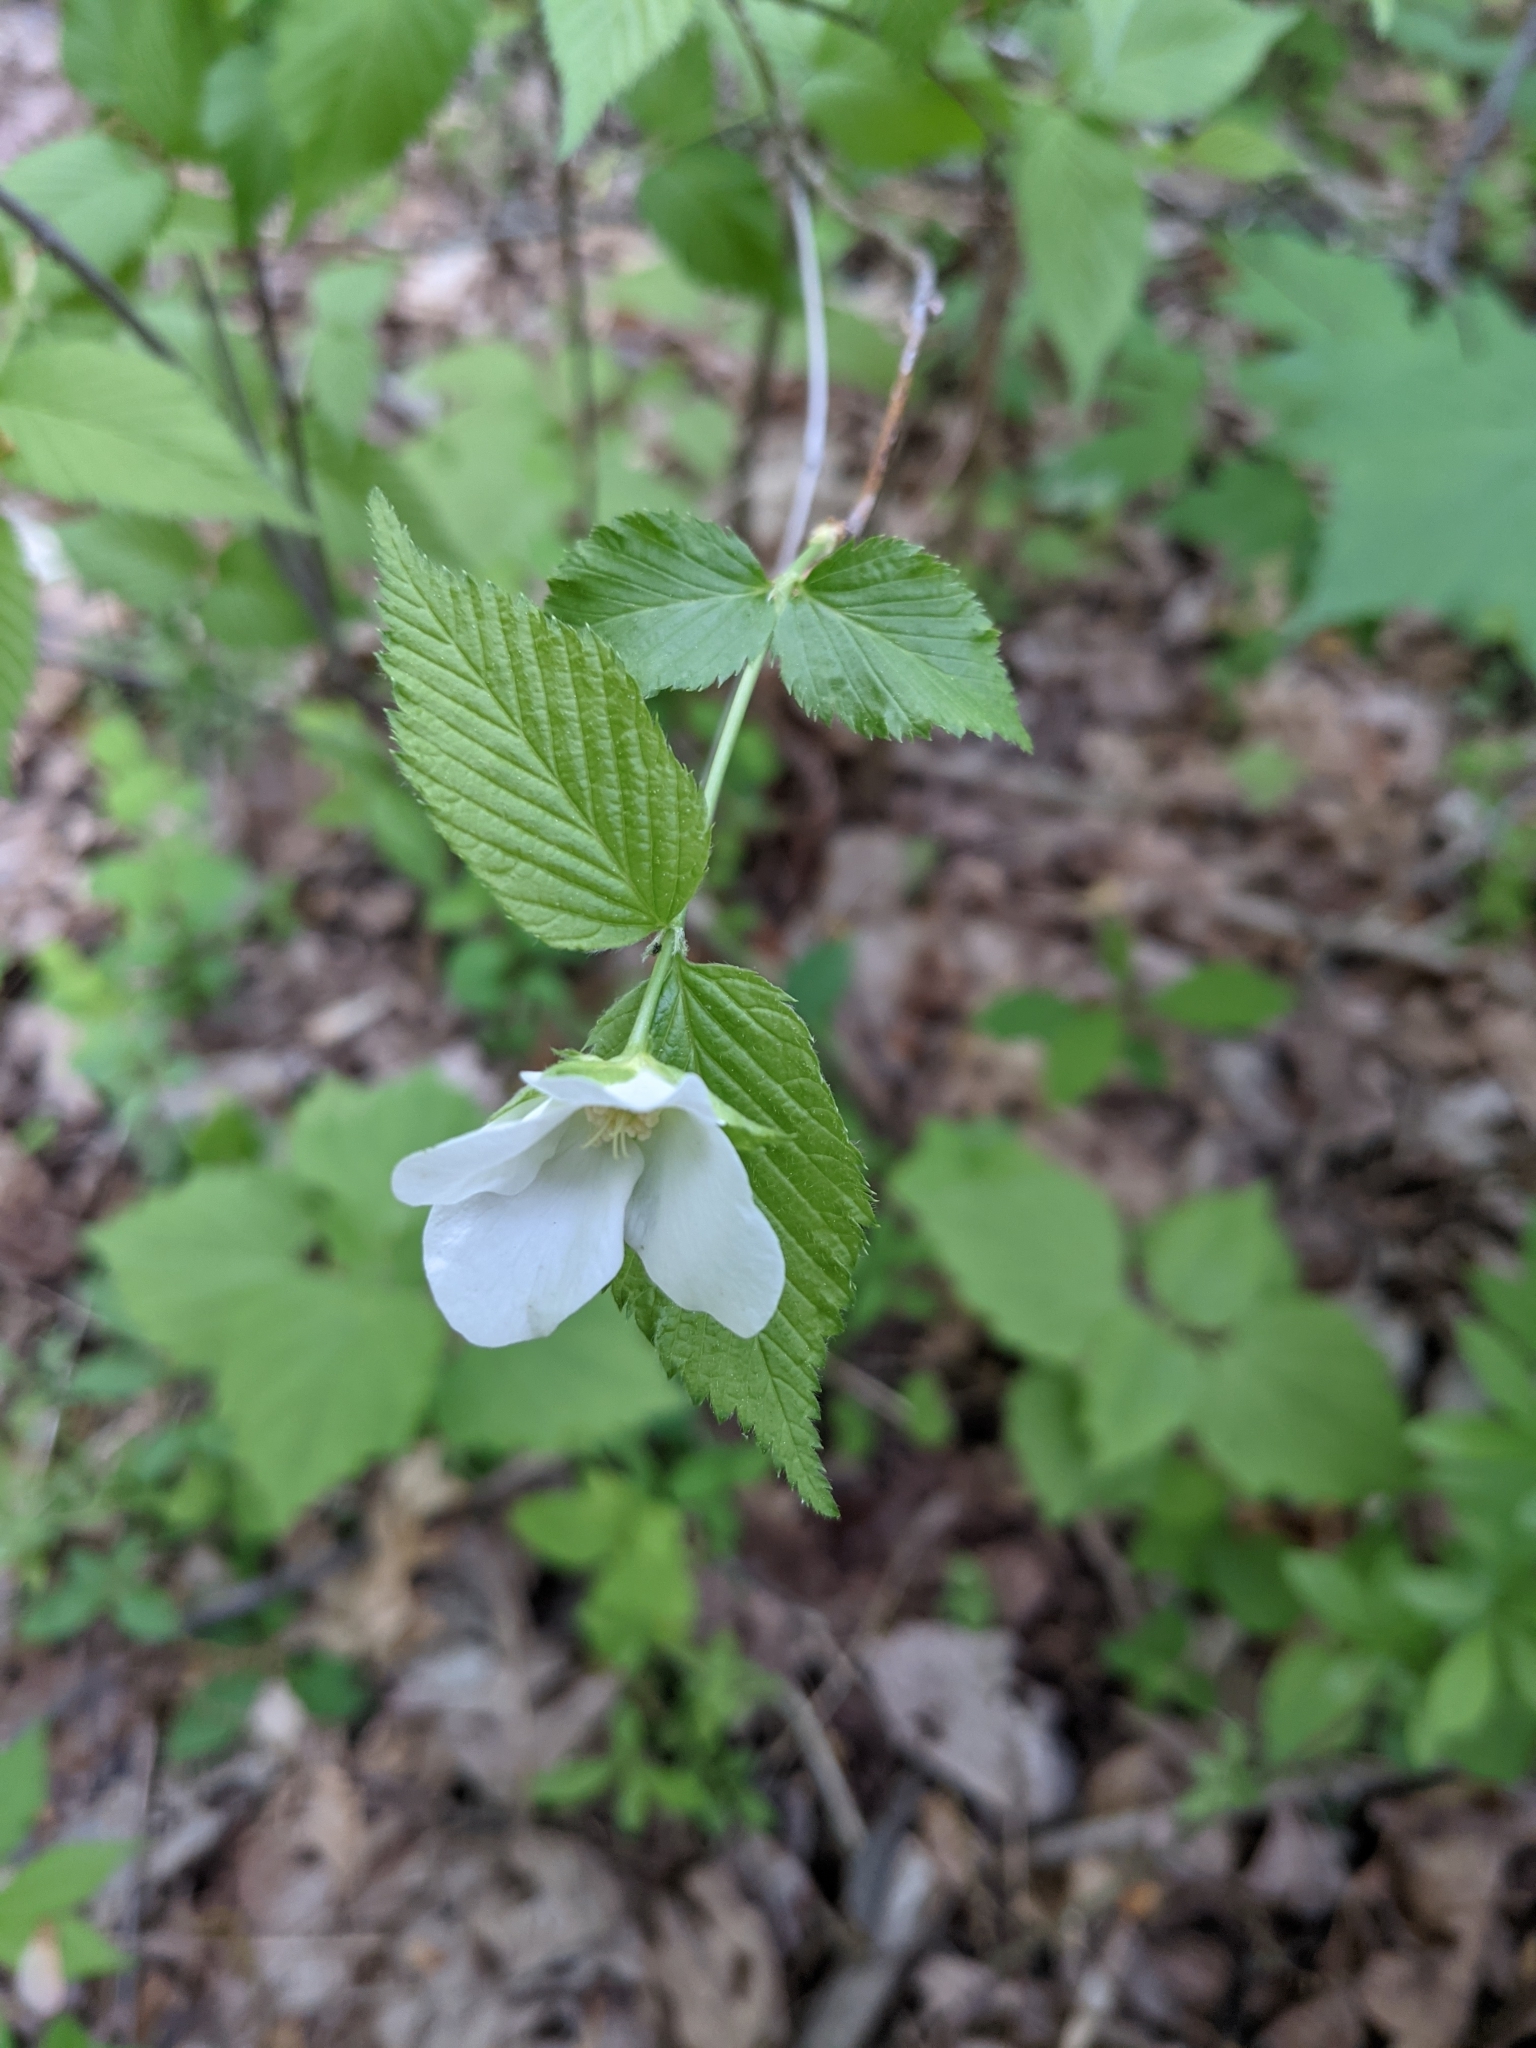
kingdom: Plantae
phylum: Tracheophyta
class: Magnoliopsida
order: Rosales
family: Rosaceae
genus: Rhodotypos
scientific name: Rhodotypos scandens
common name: Jetbead
